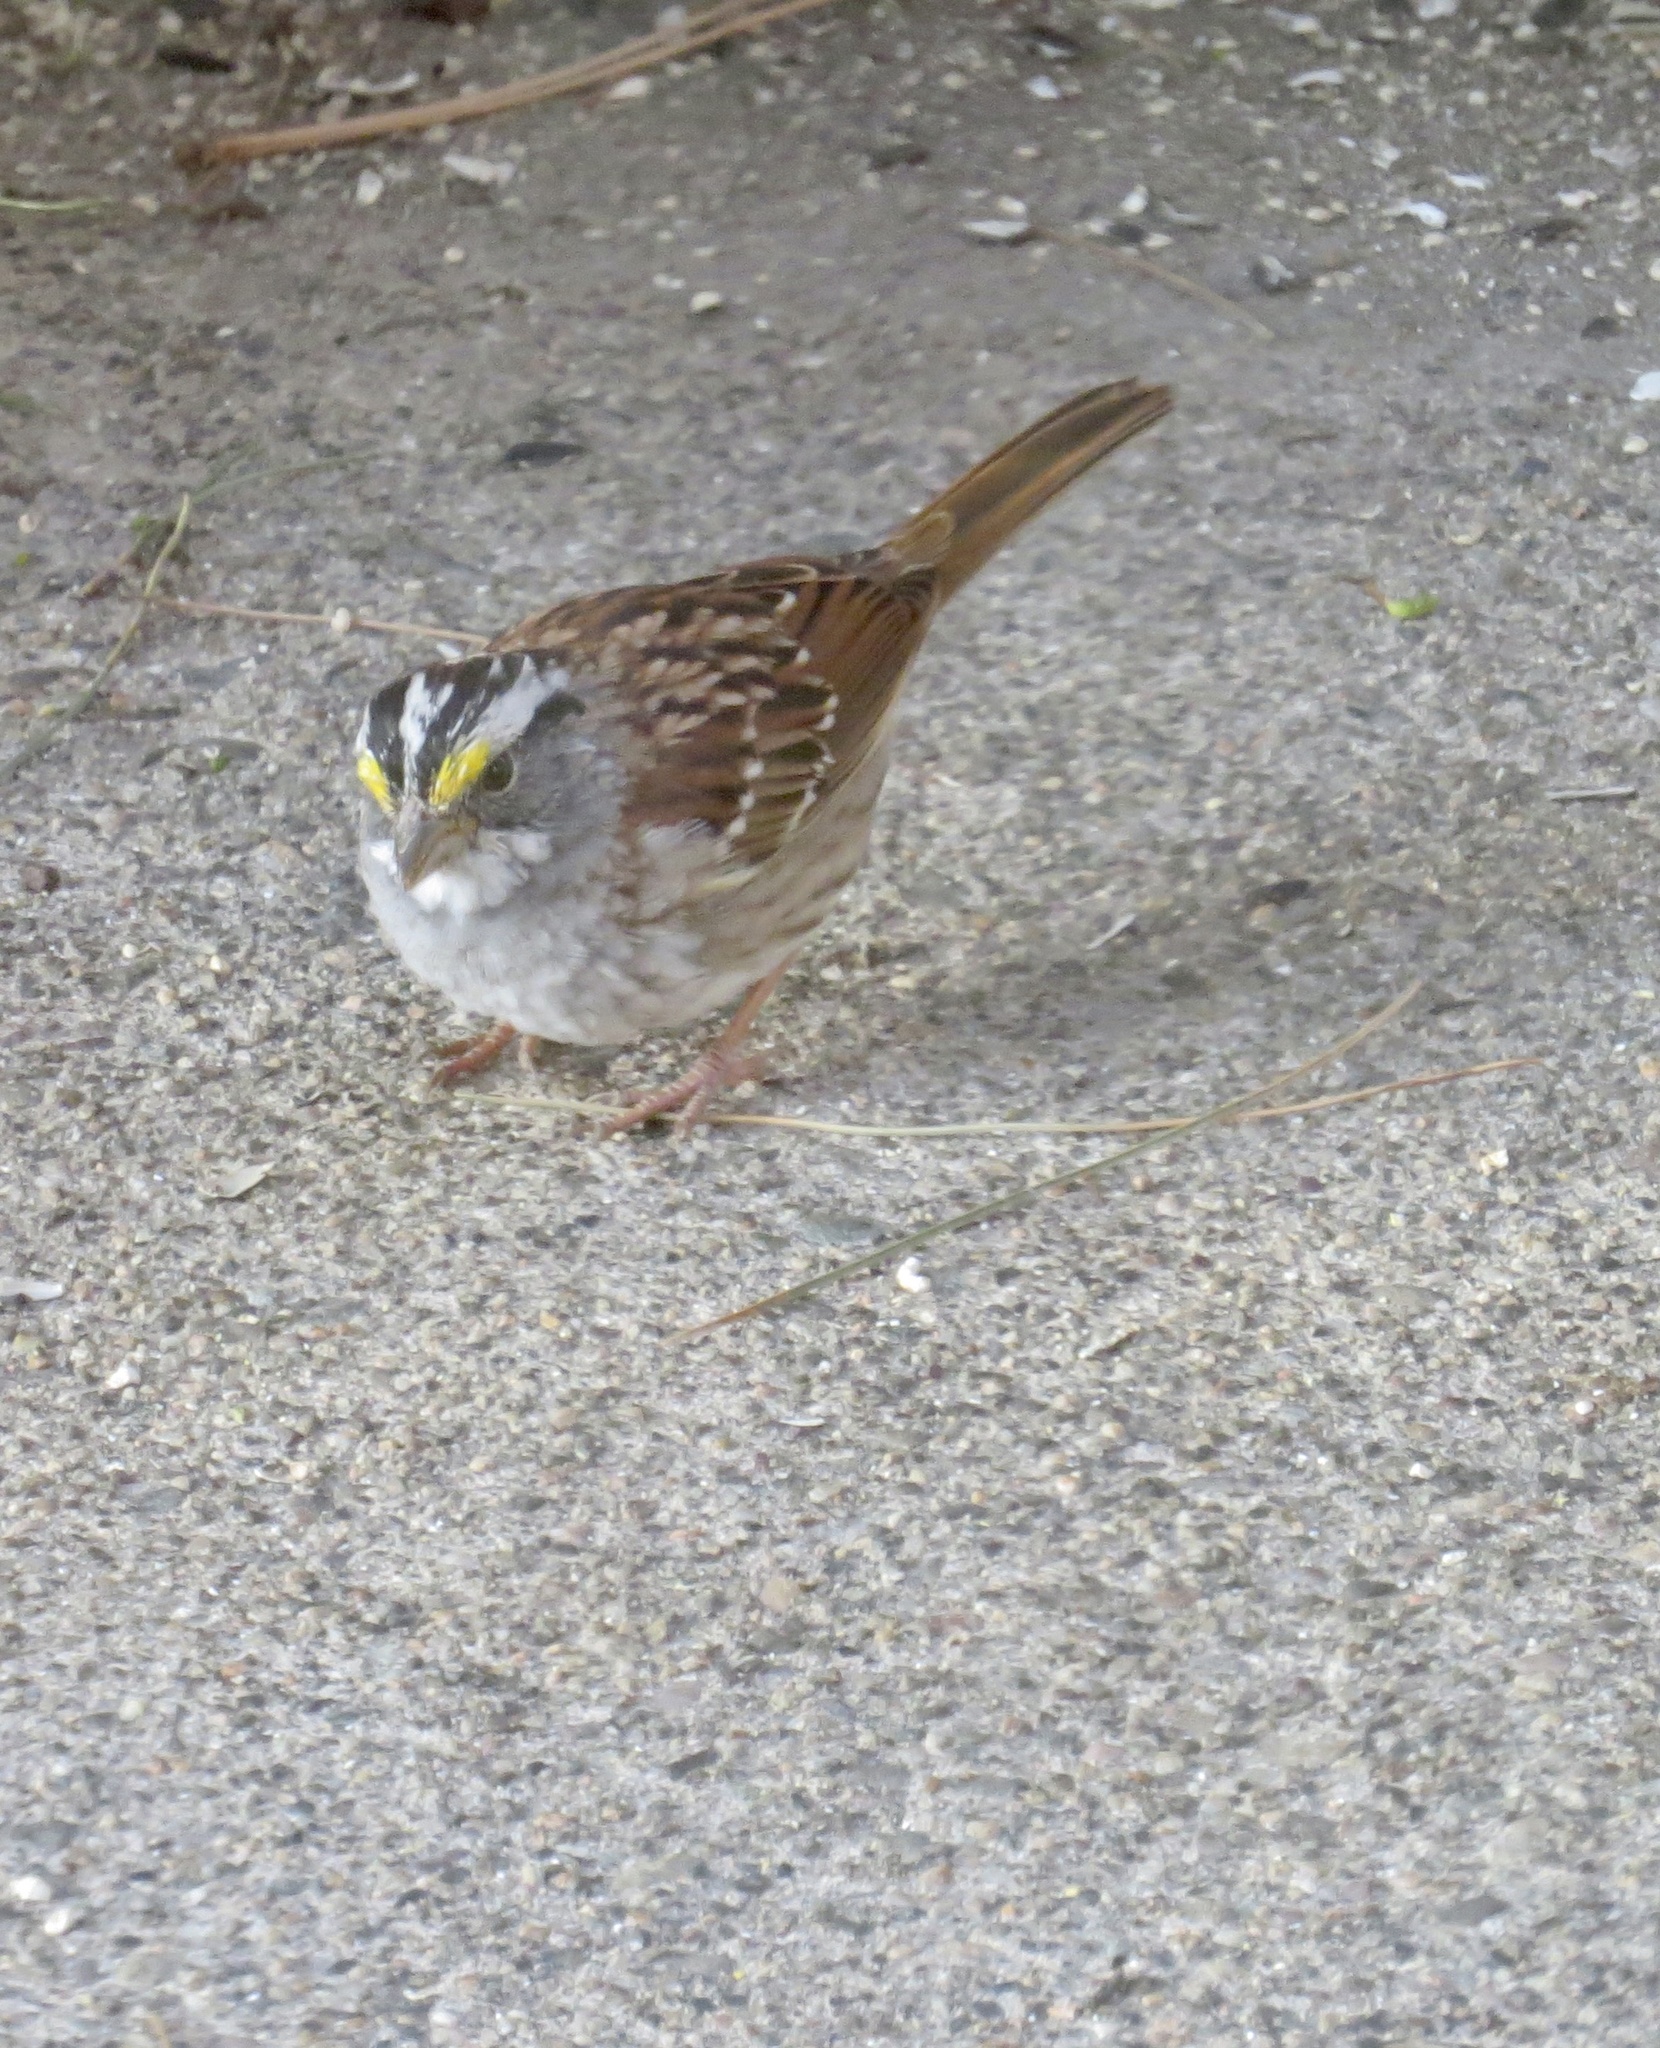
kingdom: Animalia
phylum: Chordata
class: Aves
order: Passeriformes
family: Passerellidae
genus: Zonotrichia
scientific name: Zonotrichia albicollis
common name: White-throated sparrow
